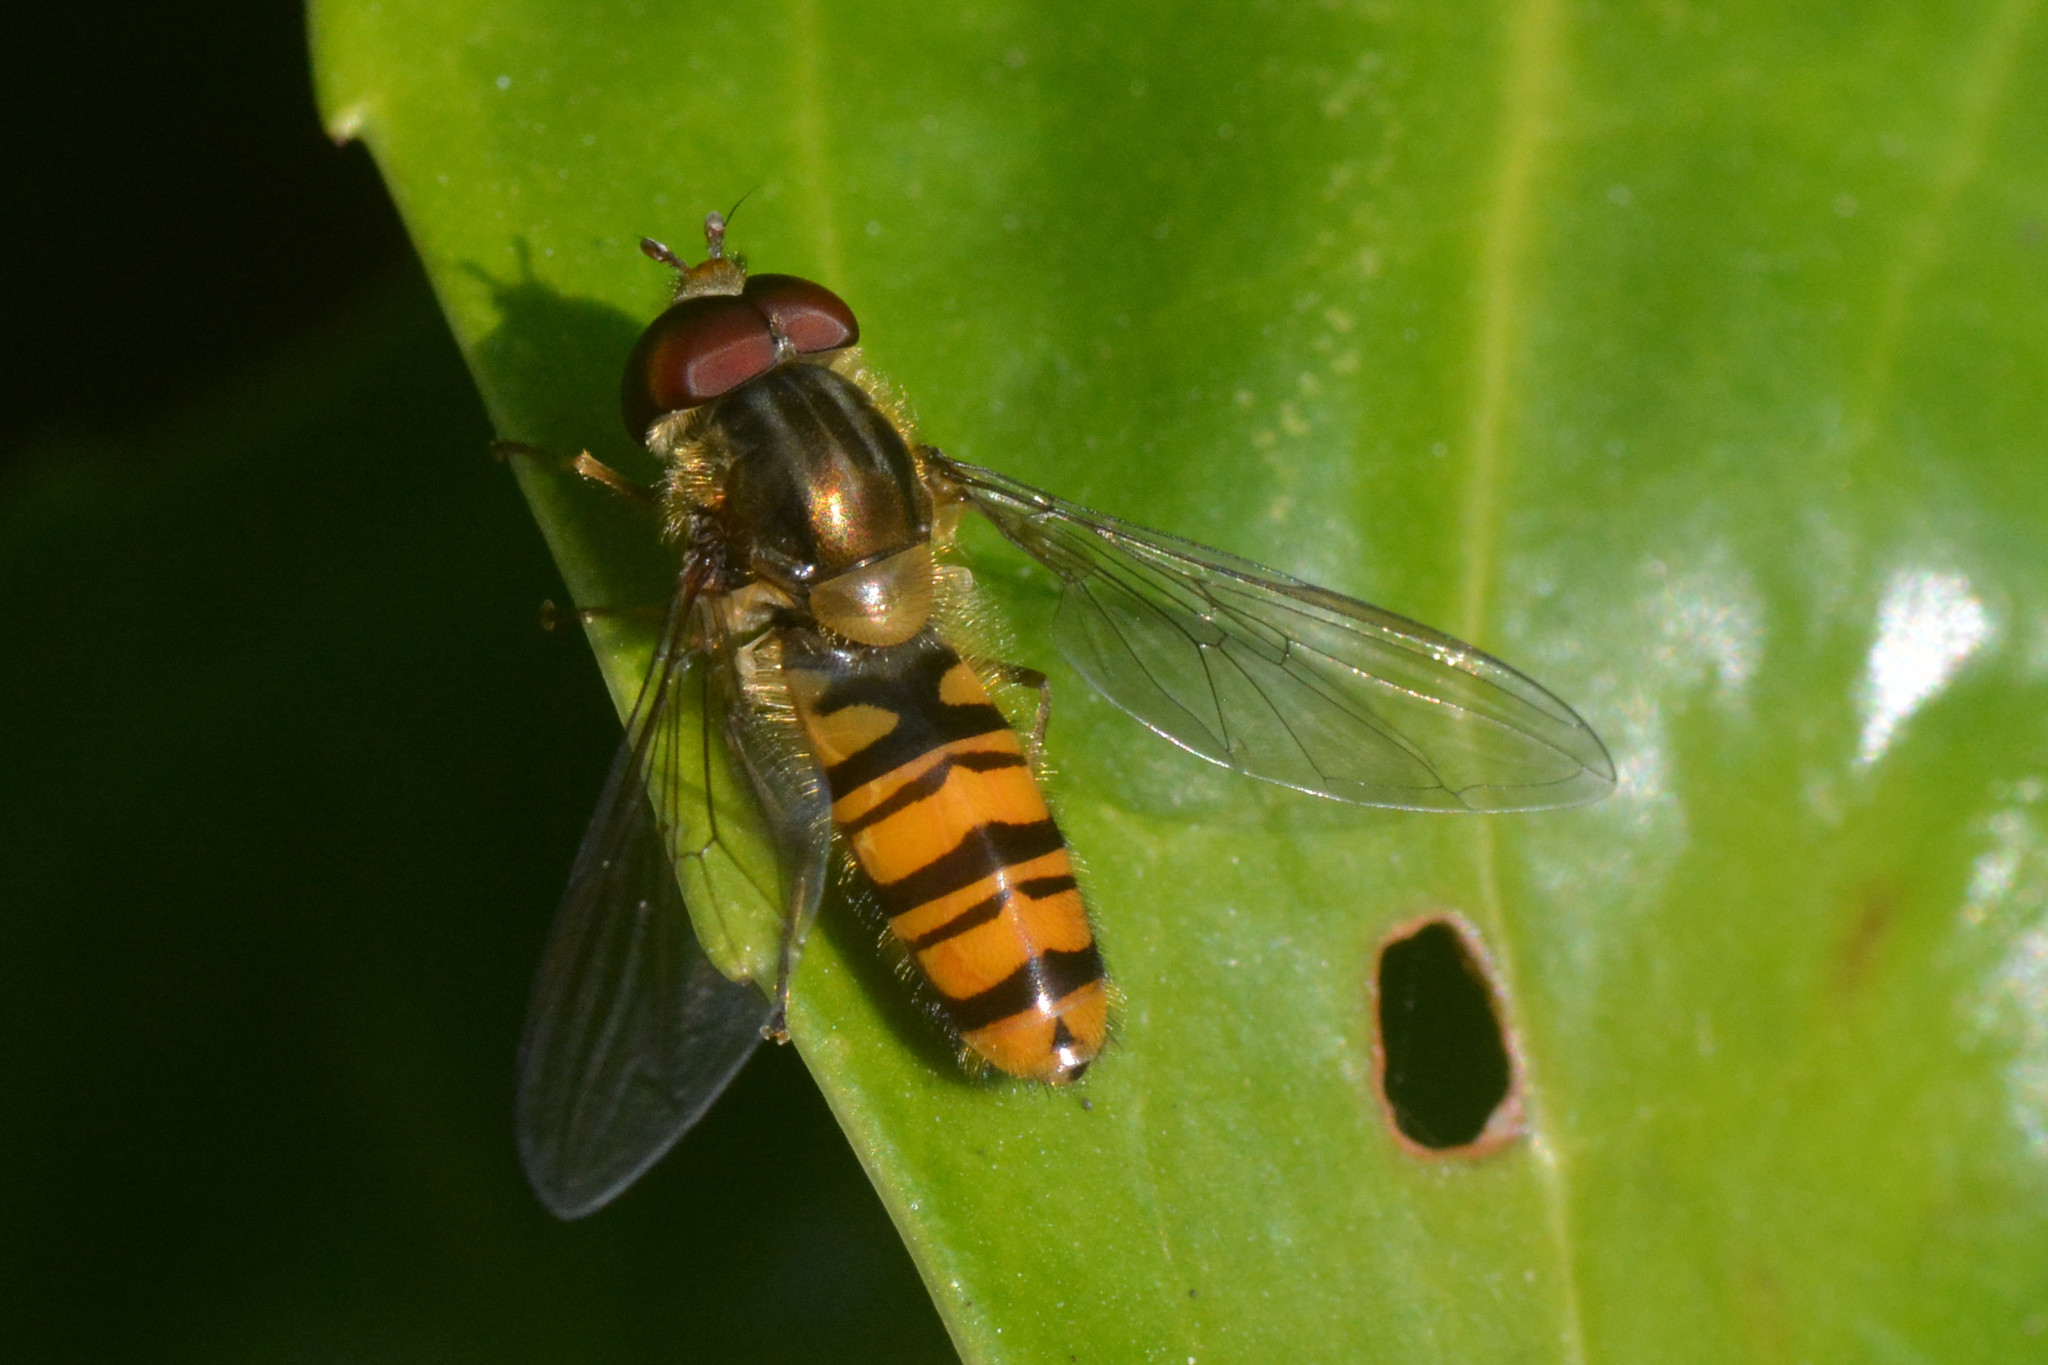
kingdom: Animalia
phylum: Arthropoda
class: Insecta
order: Diptera
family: Syrphidae
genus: Episyrphus
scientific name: Episyrphus balteatus
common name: Marmalade hoverfly
